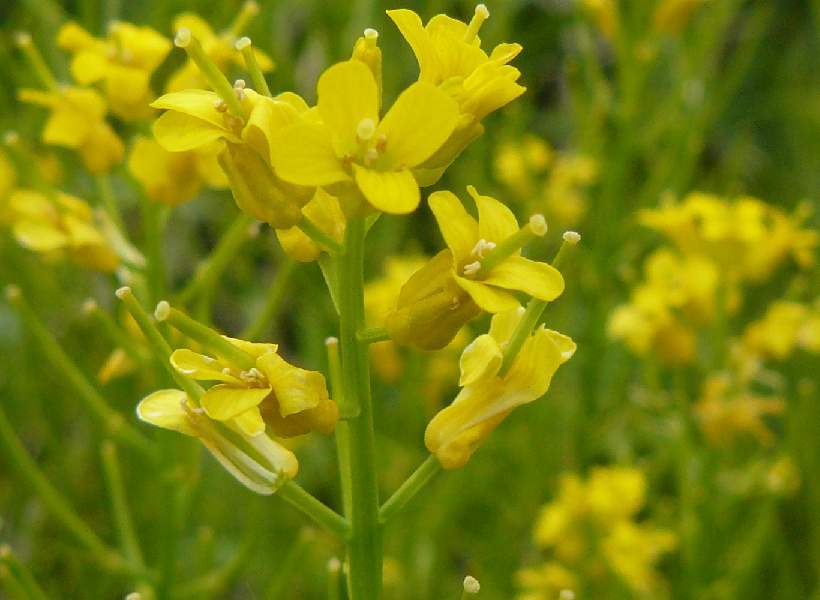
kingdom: Plantae
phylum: Tracheophyta
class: Magnoliopsida
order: Brassicales
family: Brassicaceae
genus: Barbarea
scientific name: Barbarea vulgaris
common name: Cressy-greens
